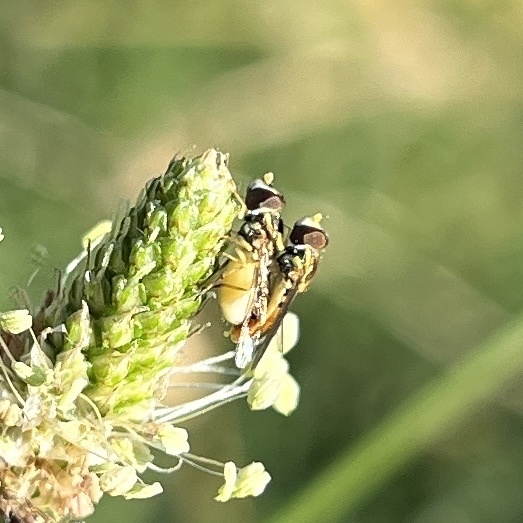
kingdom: Animalia
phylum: Arthropoda
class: Insecta
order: Diptera
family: Syrphidae
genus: Toxomerus
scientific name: Toxomerus marginatus
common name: Syrphid fly
